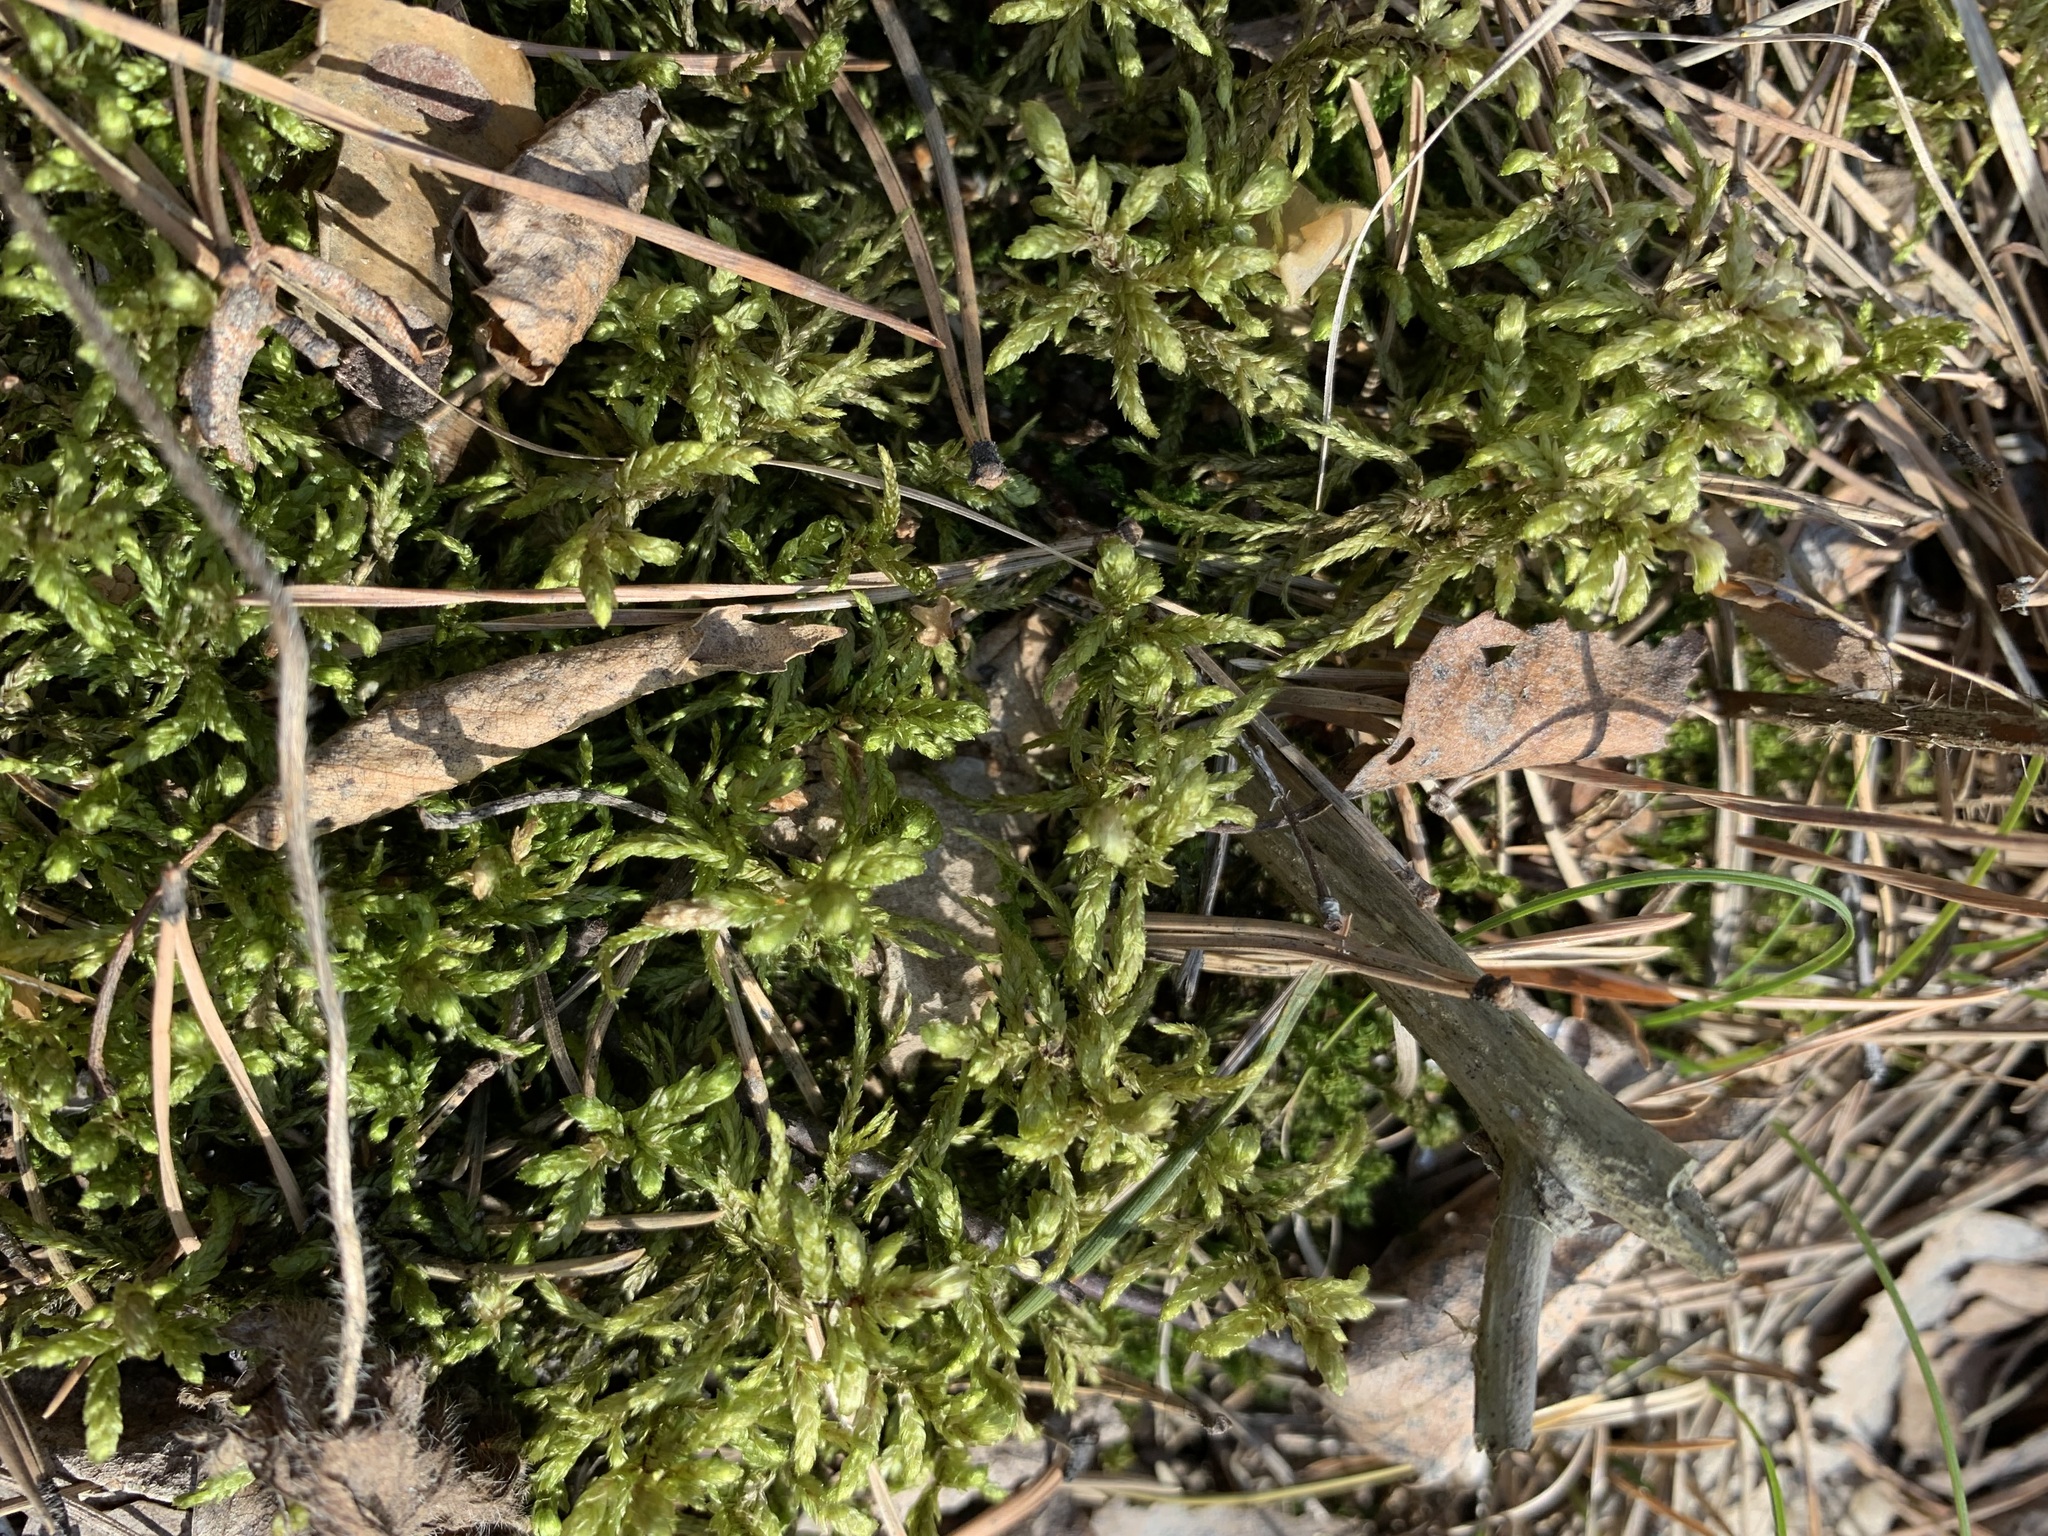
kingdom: Plantae
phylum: Bryophyta
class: Bryopsida
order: Hypnales
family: Hylocomiaceae
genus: Pleurozium
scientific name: Pleurozium schreberi
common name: Red-stemmed feather moss
